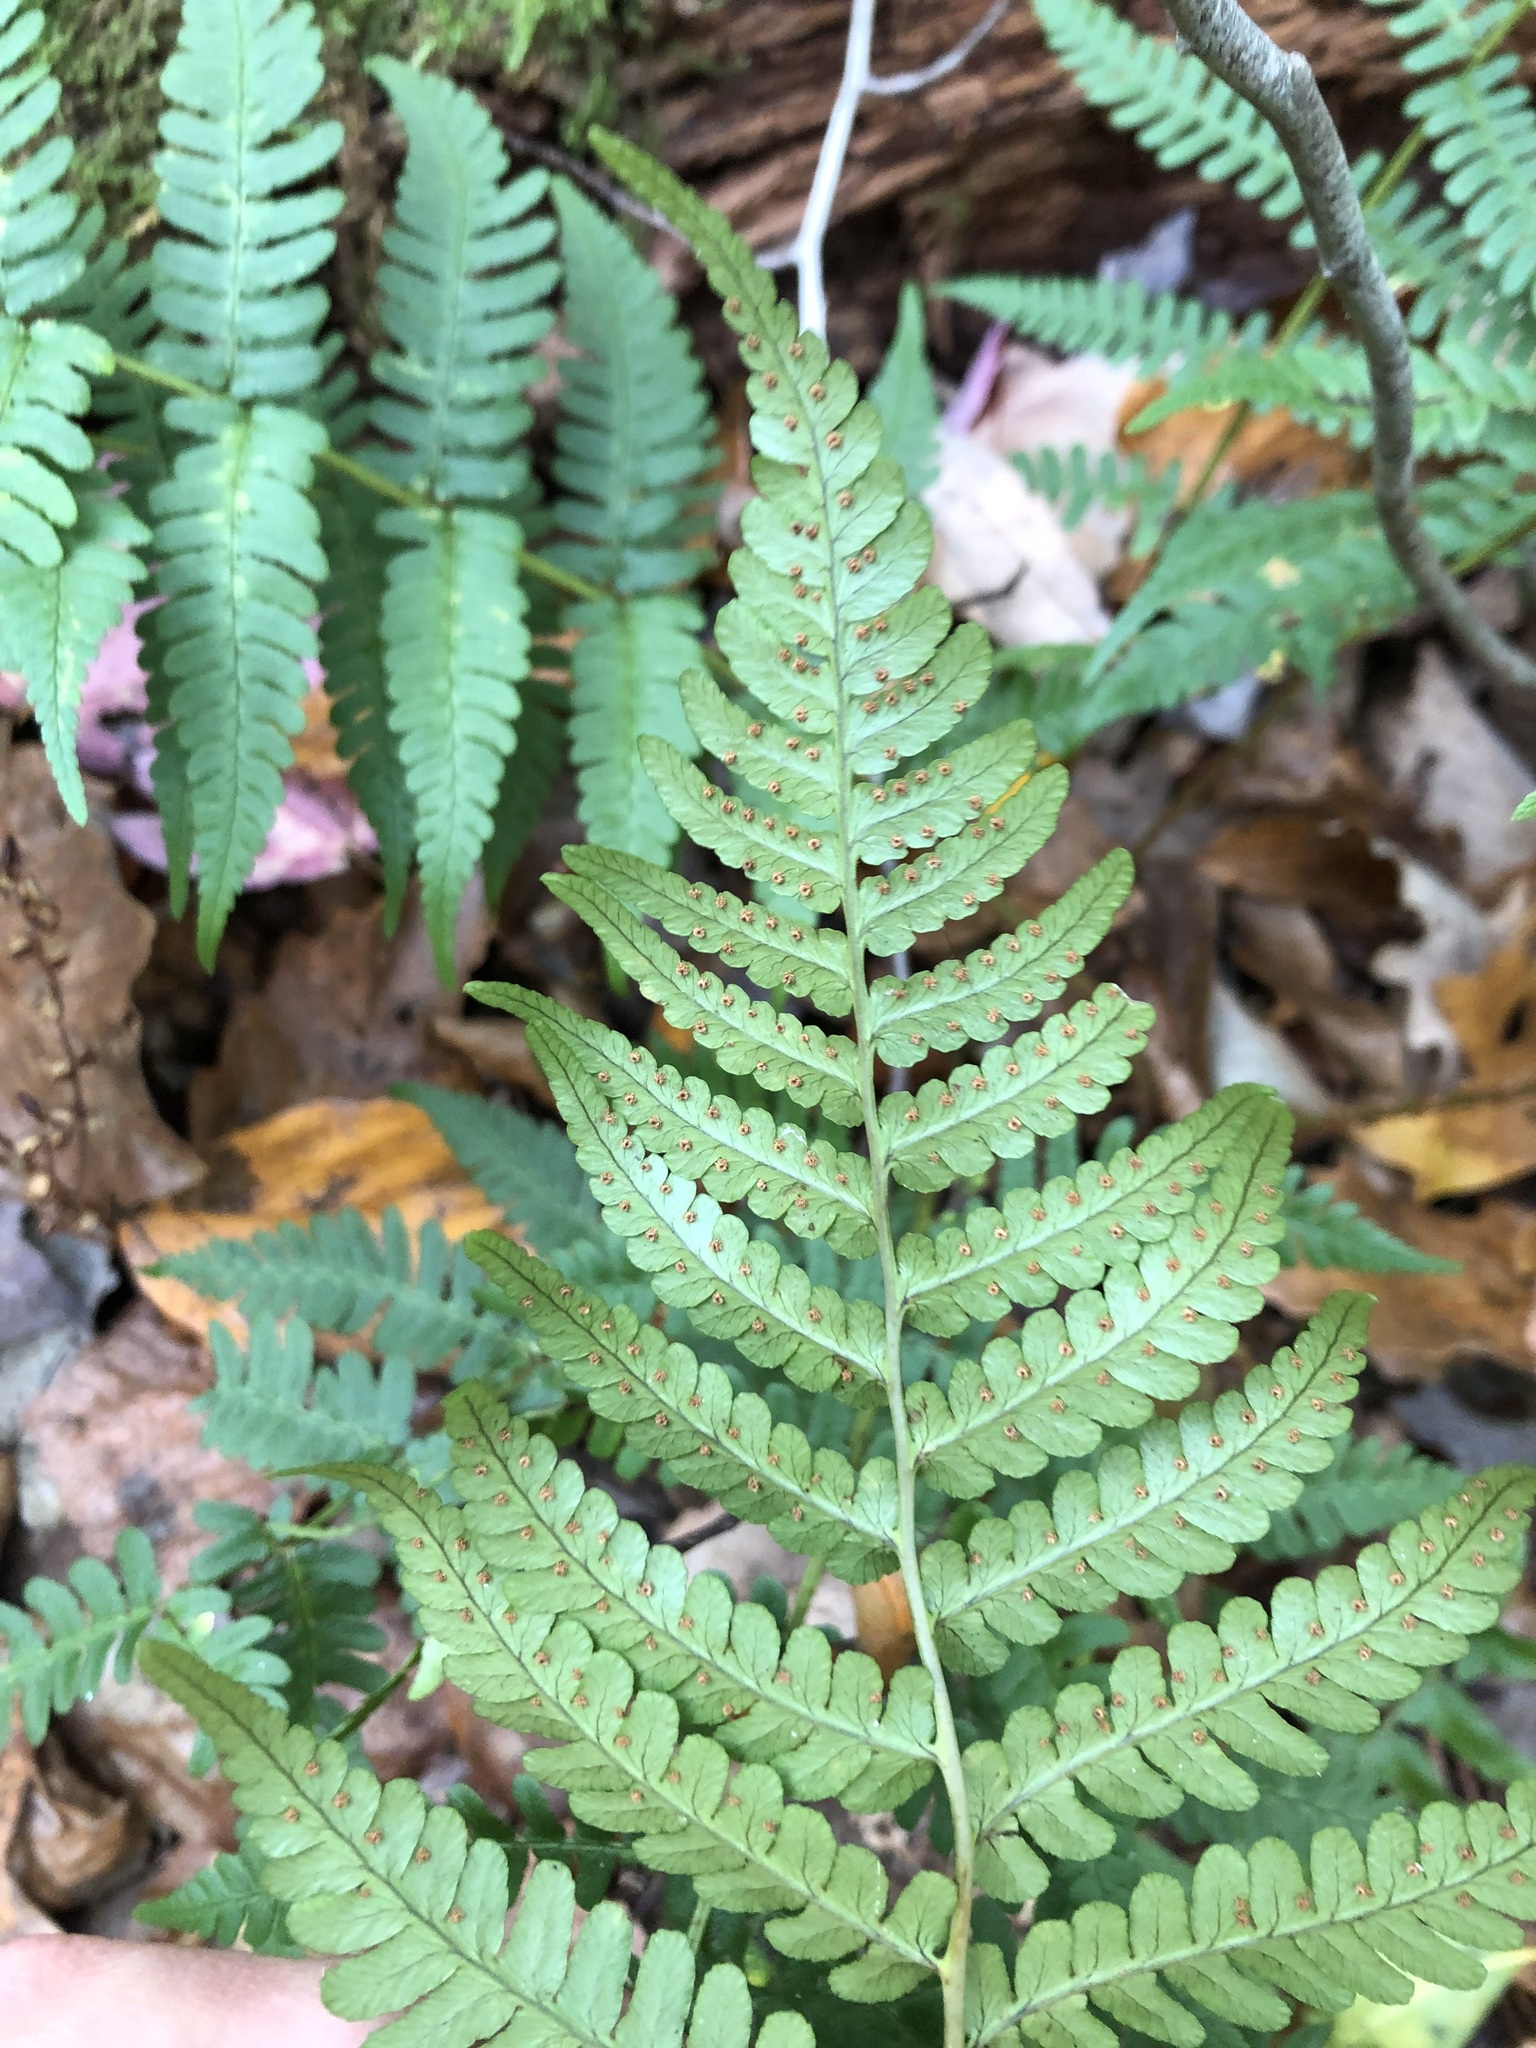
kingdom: Plantae
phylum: Tracheophyta
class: Polypodiopsida
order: Polypodiales
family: Dryopteridaceae
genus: Dryopteris
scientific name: Dryopteris marginalis
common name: Marginal wood fern
